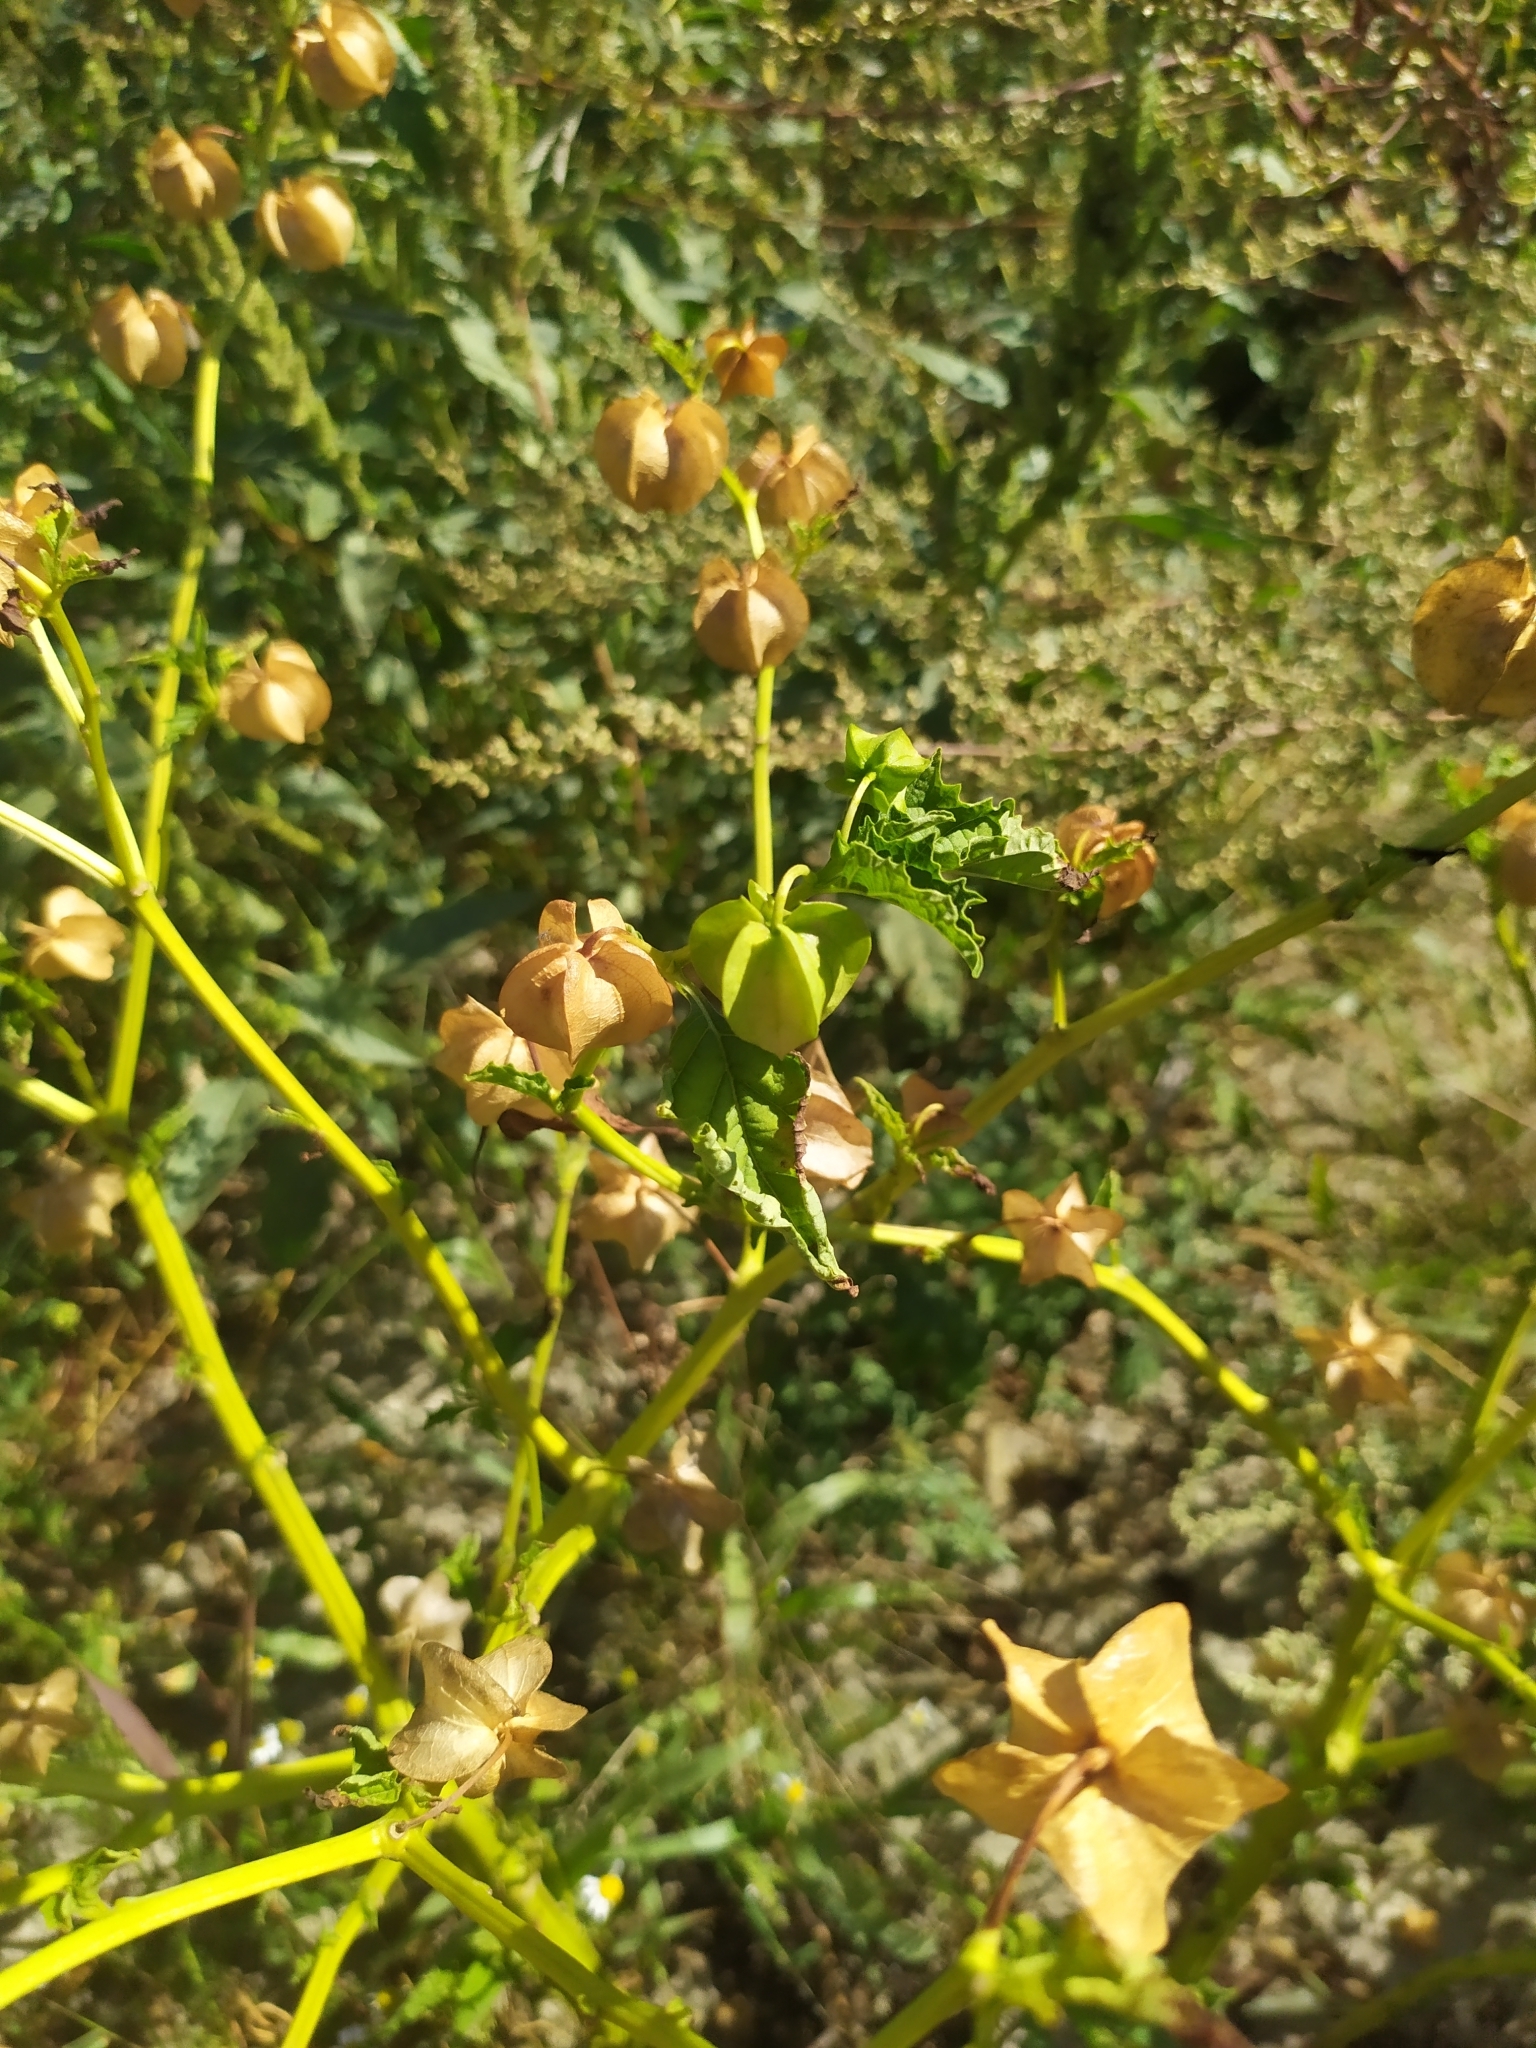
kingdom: Plantae
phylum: Tracheophyta
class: Magnoliopsida
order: Solanales
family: Solanaceae
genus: Nicandra
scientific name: Nicandra physalodes
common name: Apple-of-peru
